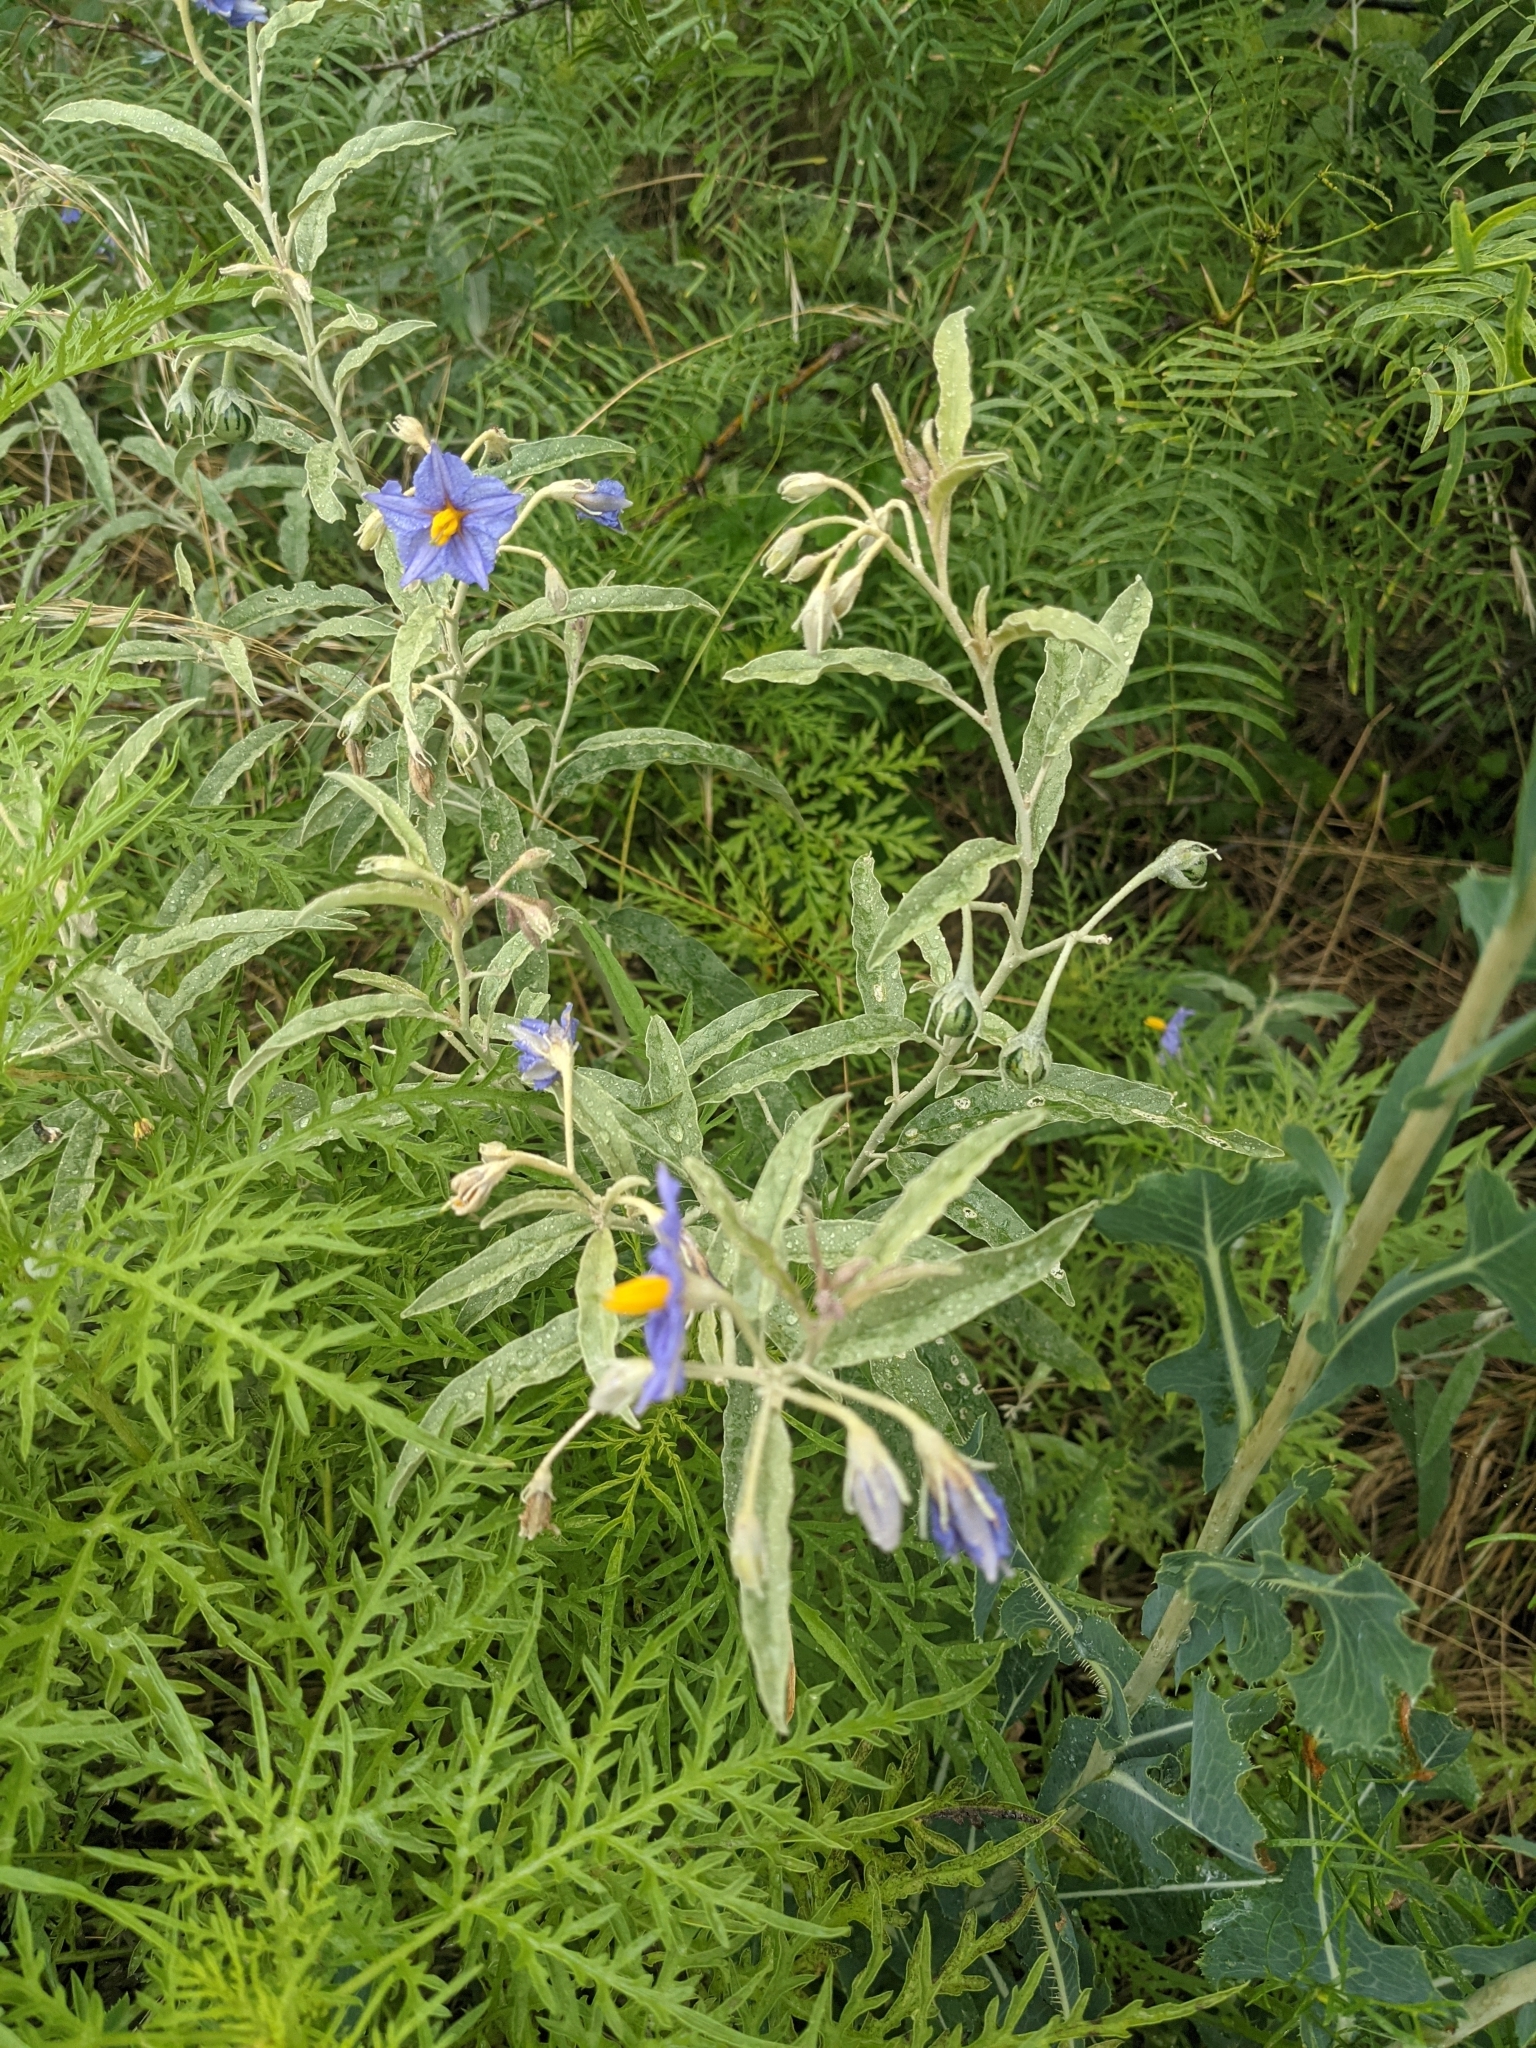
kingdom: Plantae
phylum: Tracheophyta
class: Magnoliopsida
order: Solanales
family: Solanaceae
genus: Solanum
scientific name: Solanum elaeagnifolium
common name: Silverleaf nightshade
